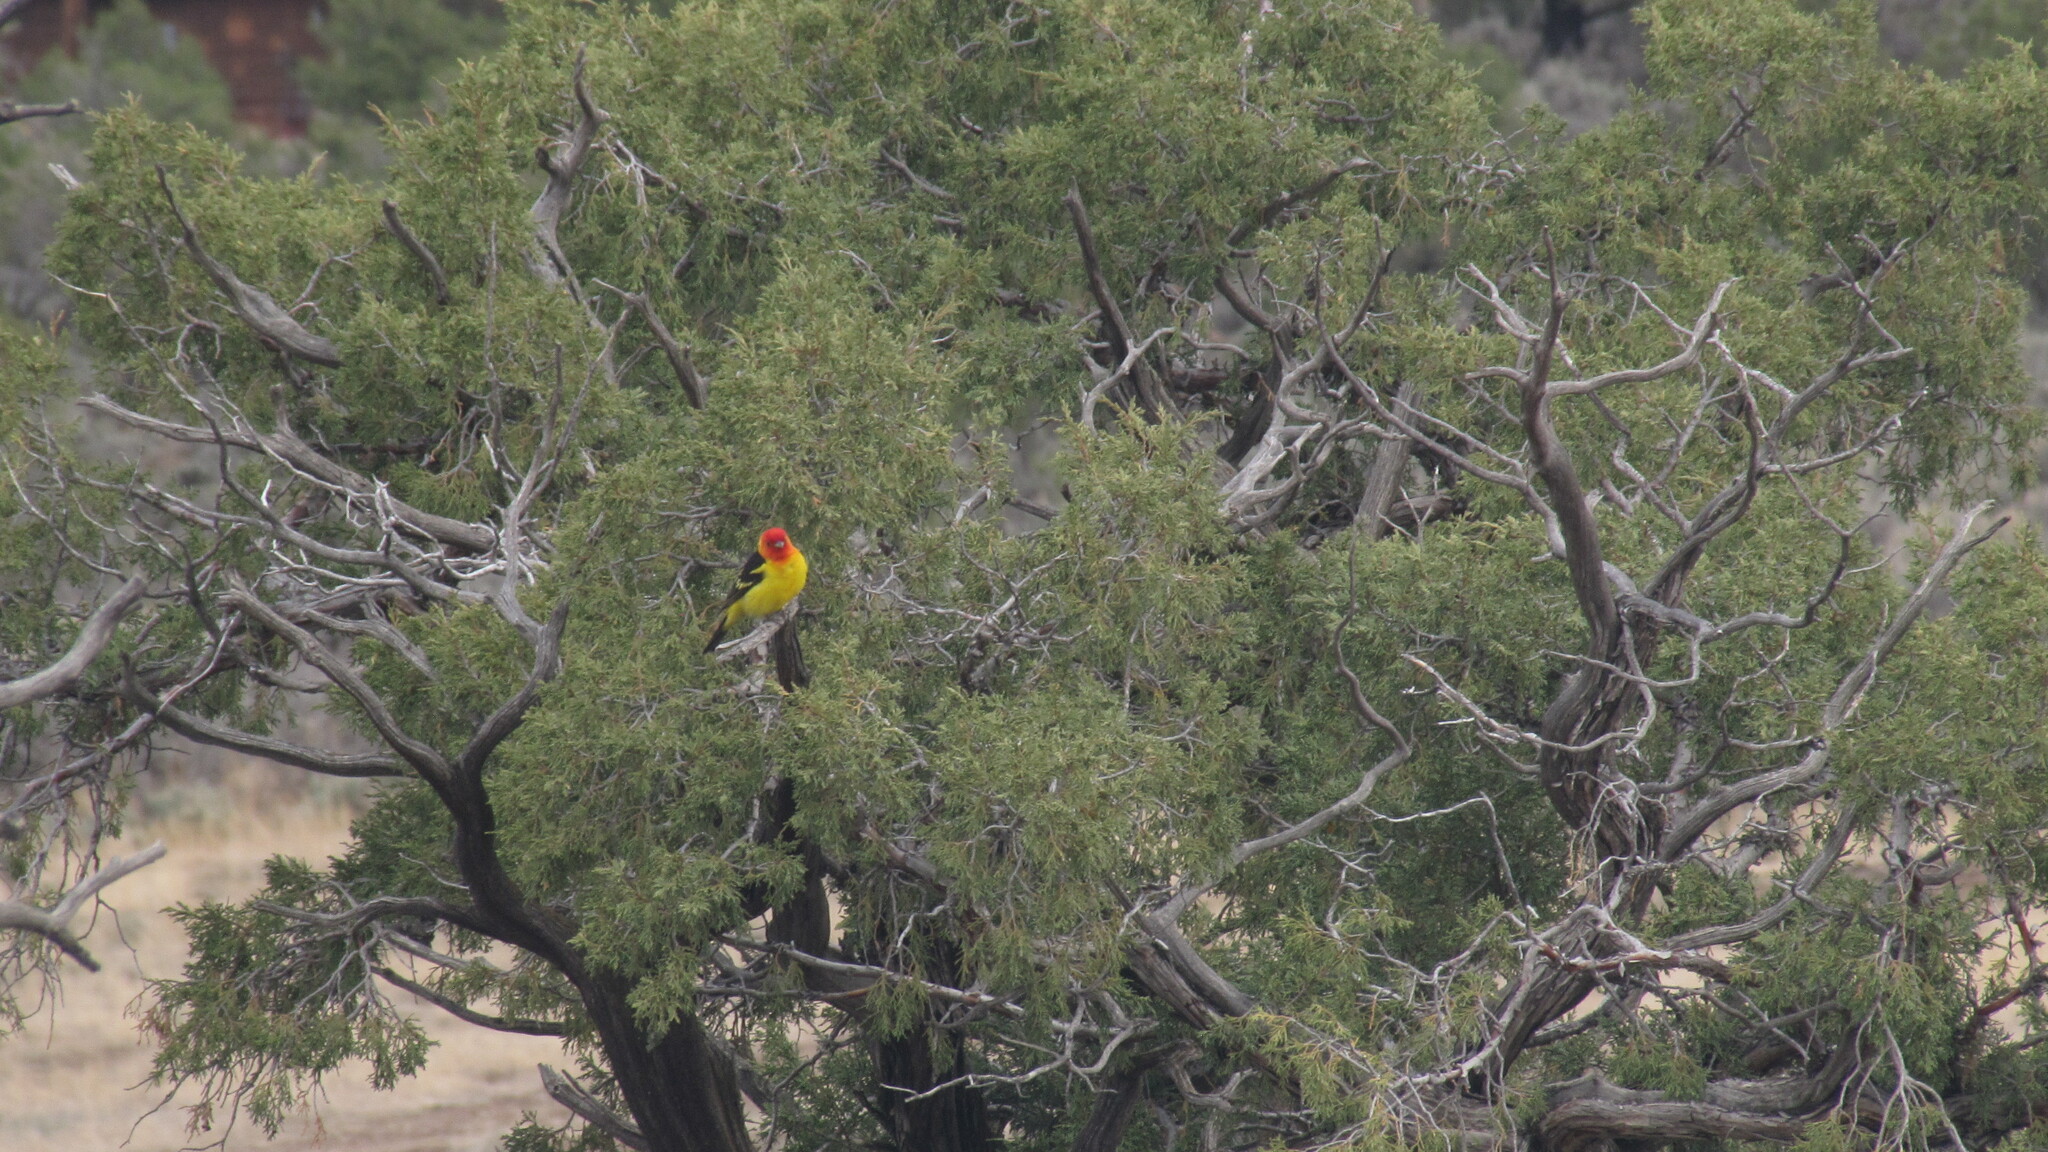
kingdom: Animalia
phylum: Chordata
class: Aves
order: Passeriformes
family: Cardinalidae
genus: Piranga
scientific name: Piranga ludoviciana
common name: Western tanager
